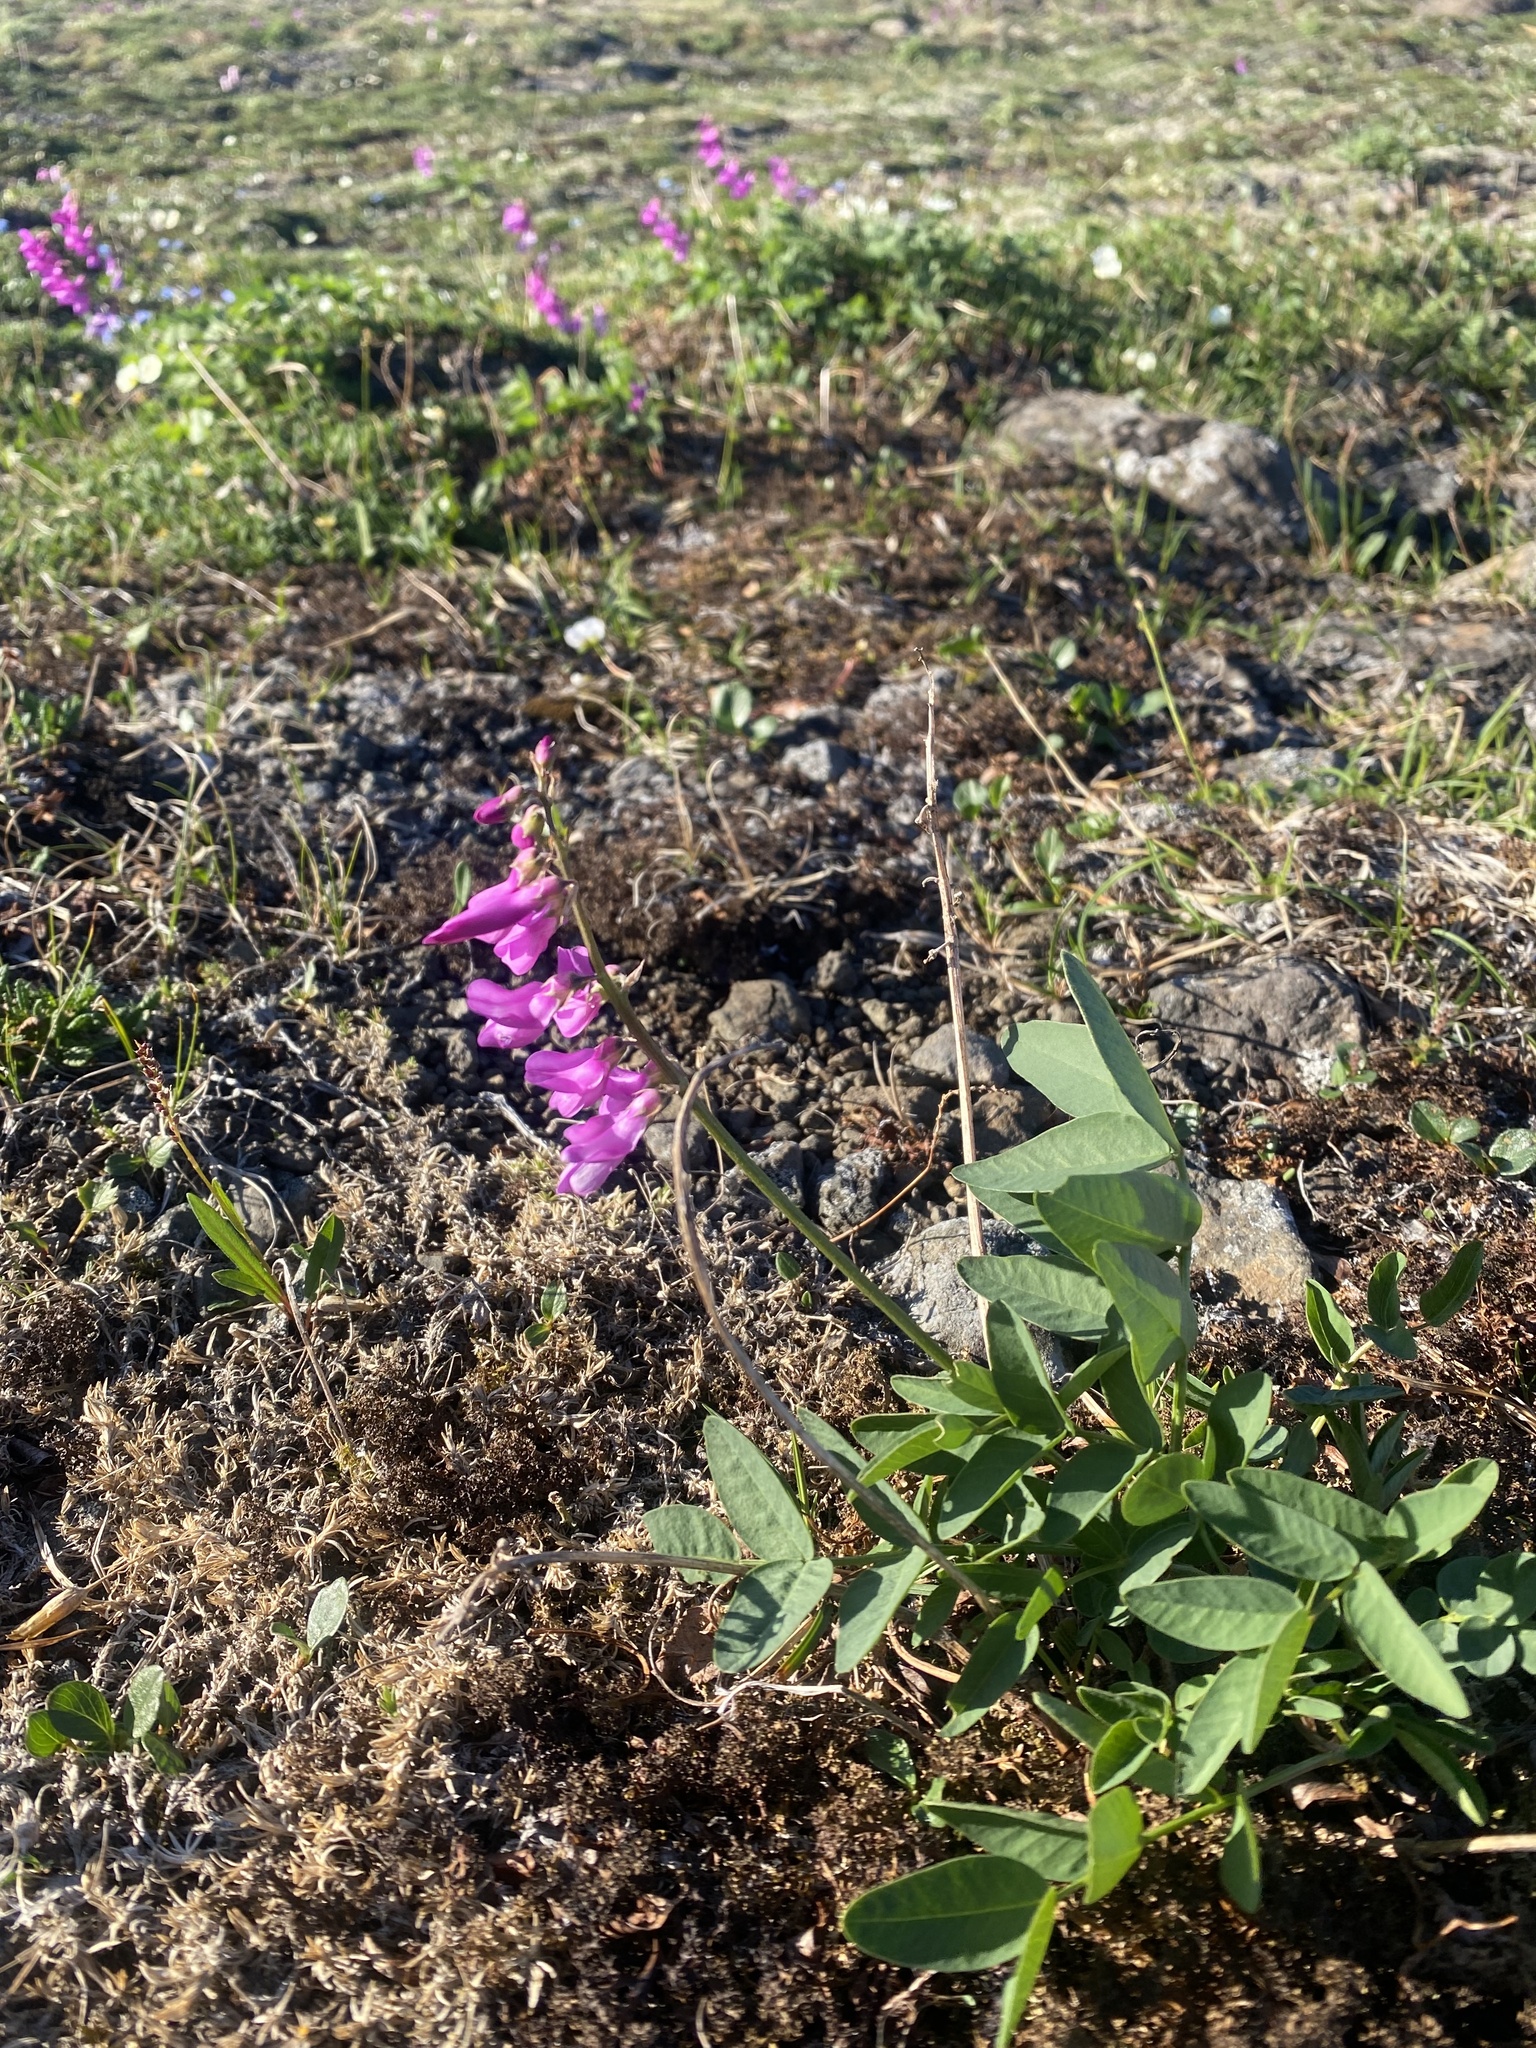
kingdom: Plantae
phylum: Tracheophyta
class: Magnoliopsida
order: Fabales
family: Fabaceae
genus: Hedysarum
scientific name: Hedysarum hedysaroides
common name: Alpine french-honeysuckle
